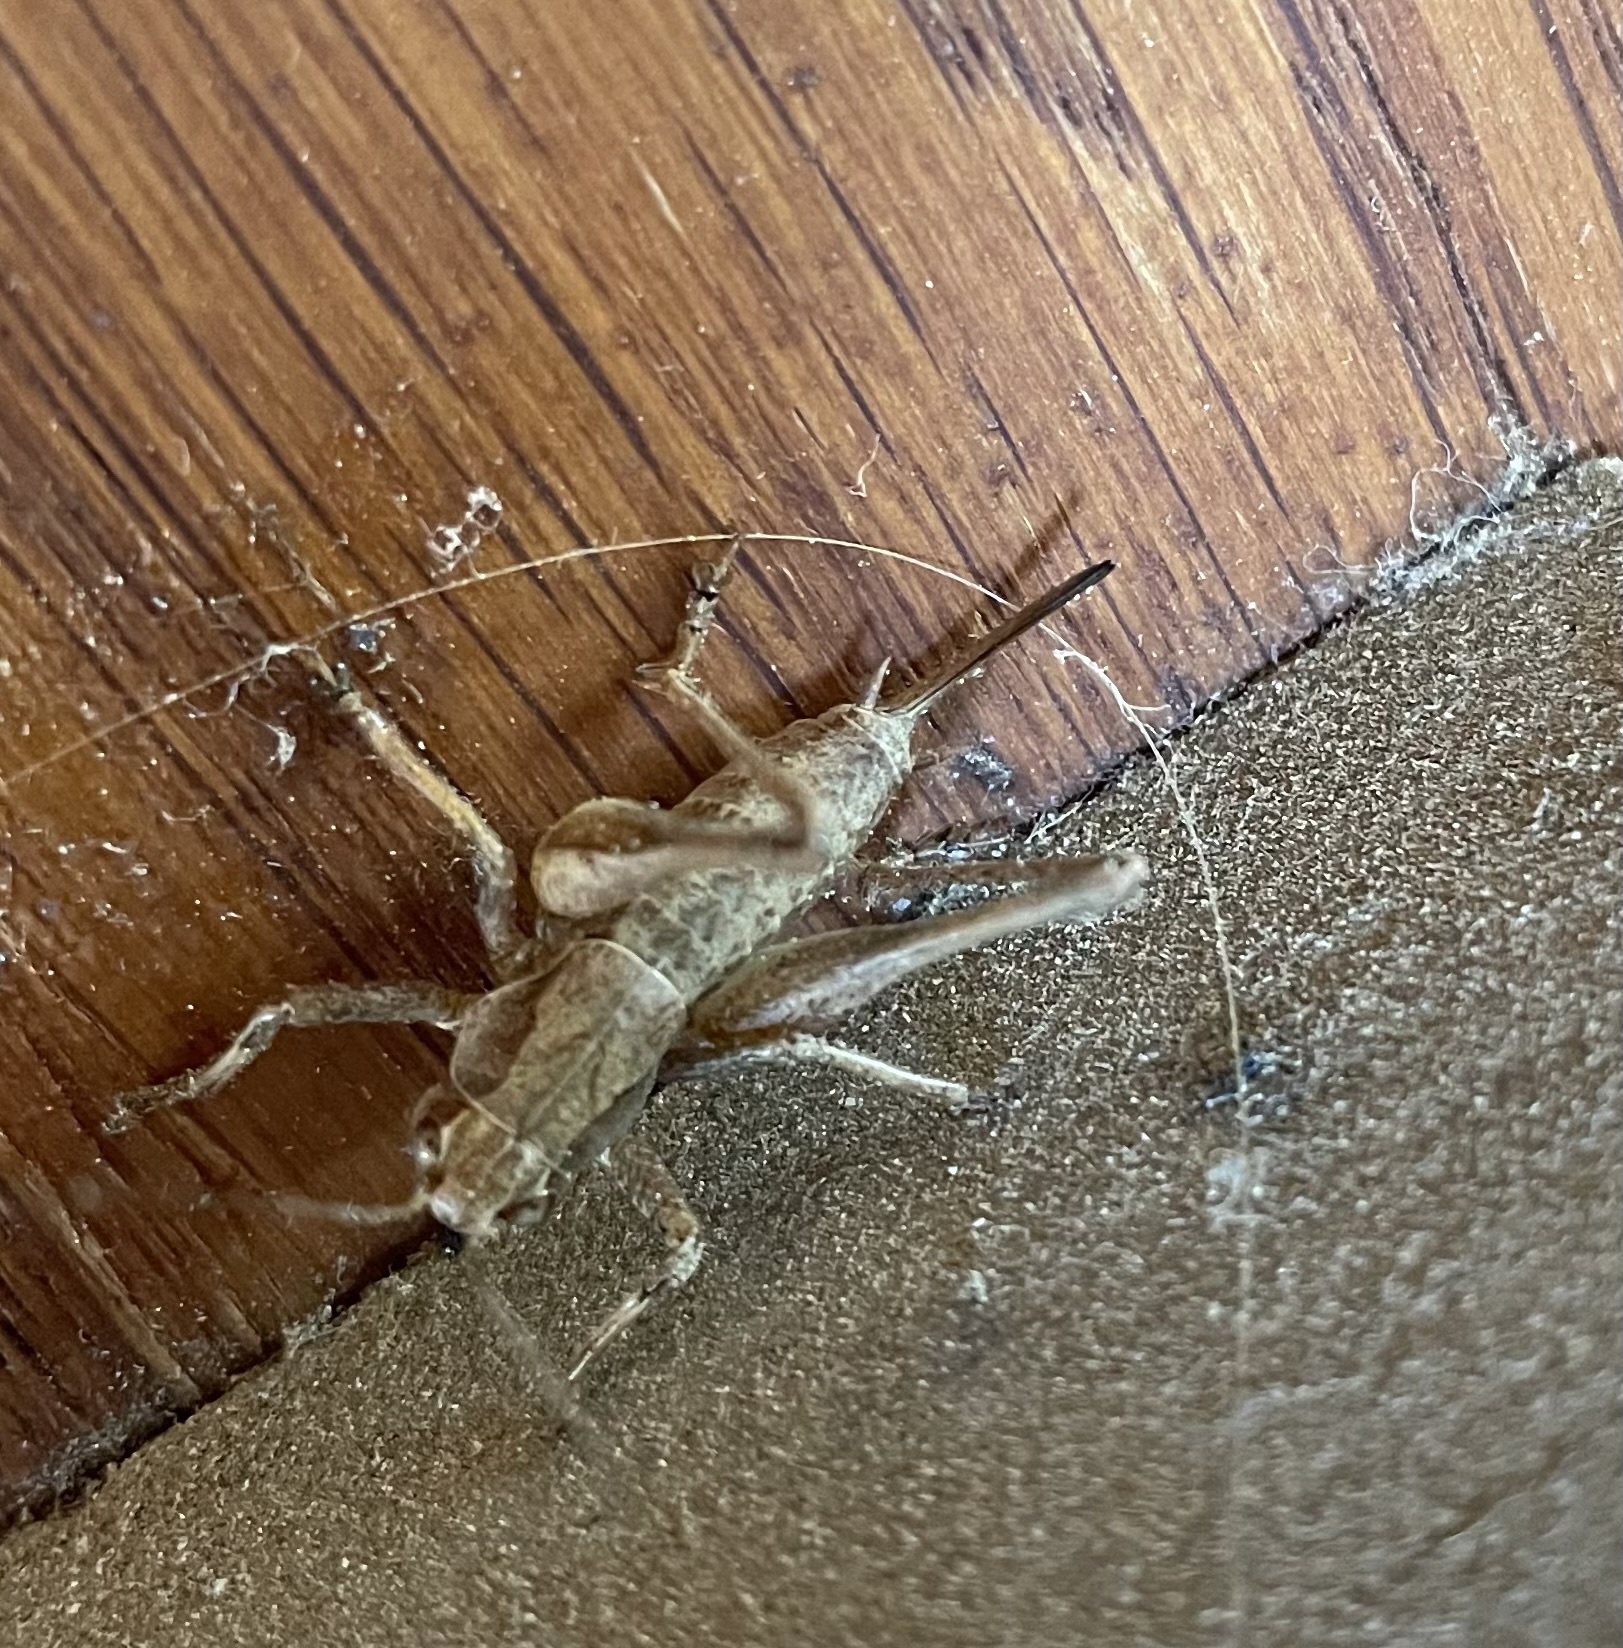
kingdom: Animalia
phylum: Arthropoda
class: Insecta
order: Orthoptera
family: Tettigoniidae
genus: Pholidoptera
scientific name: Pholidoptera griseoaptera
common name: Dark bush-cricket
